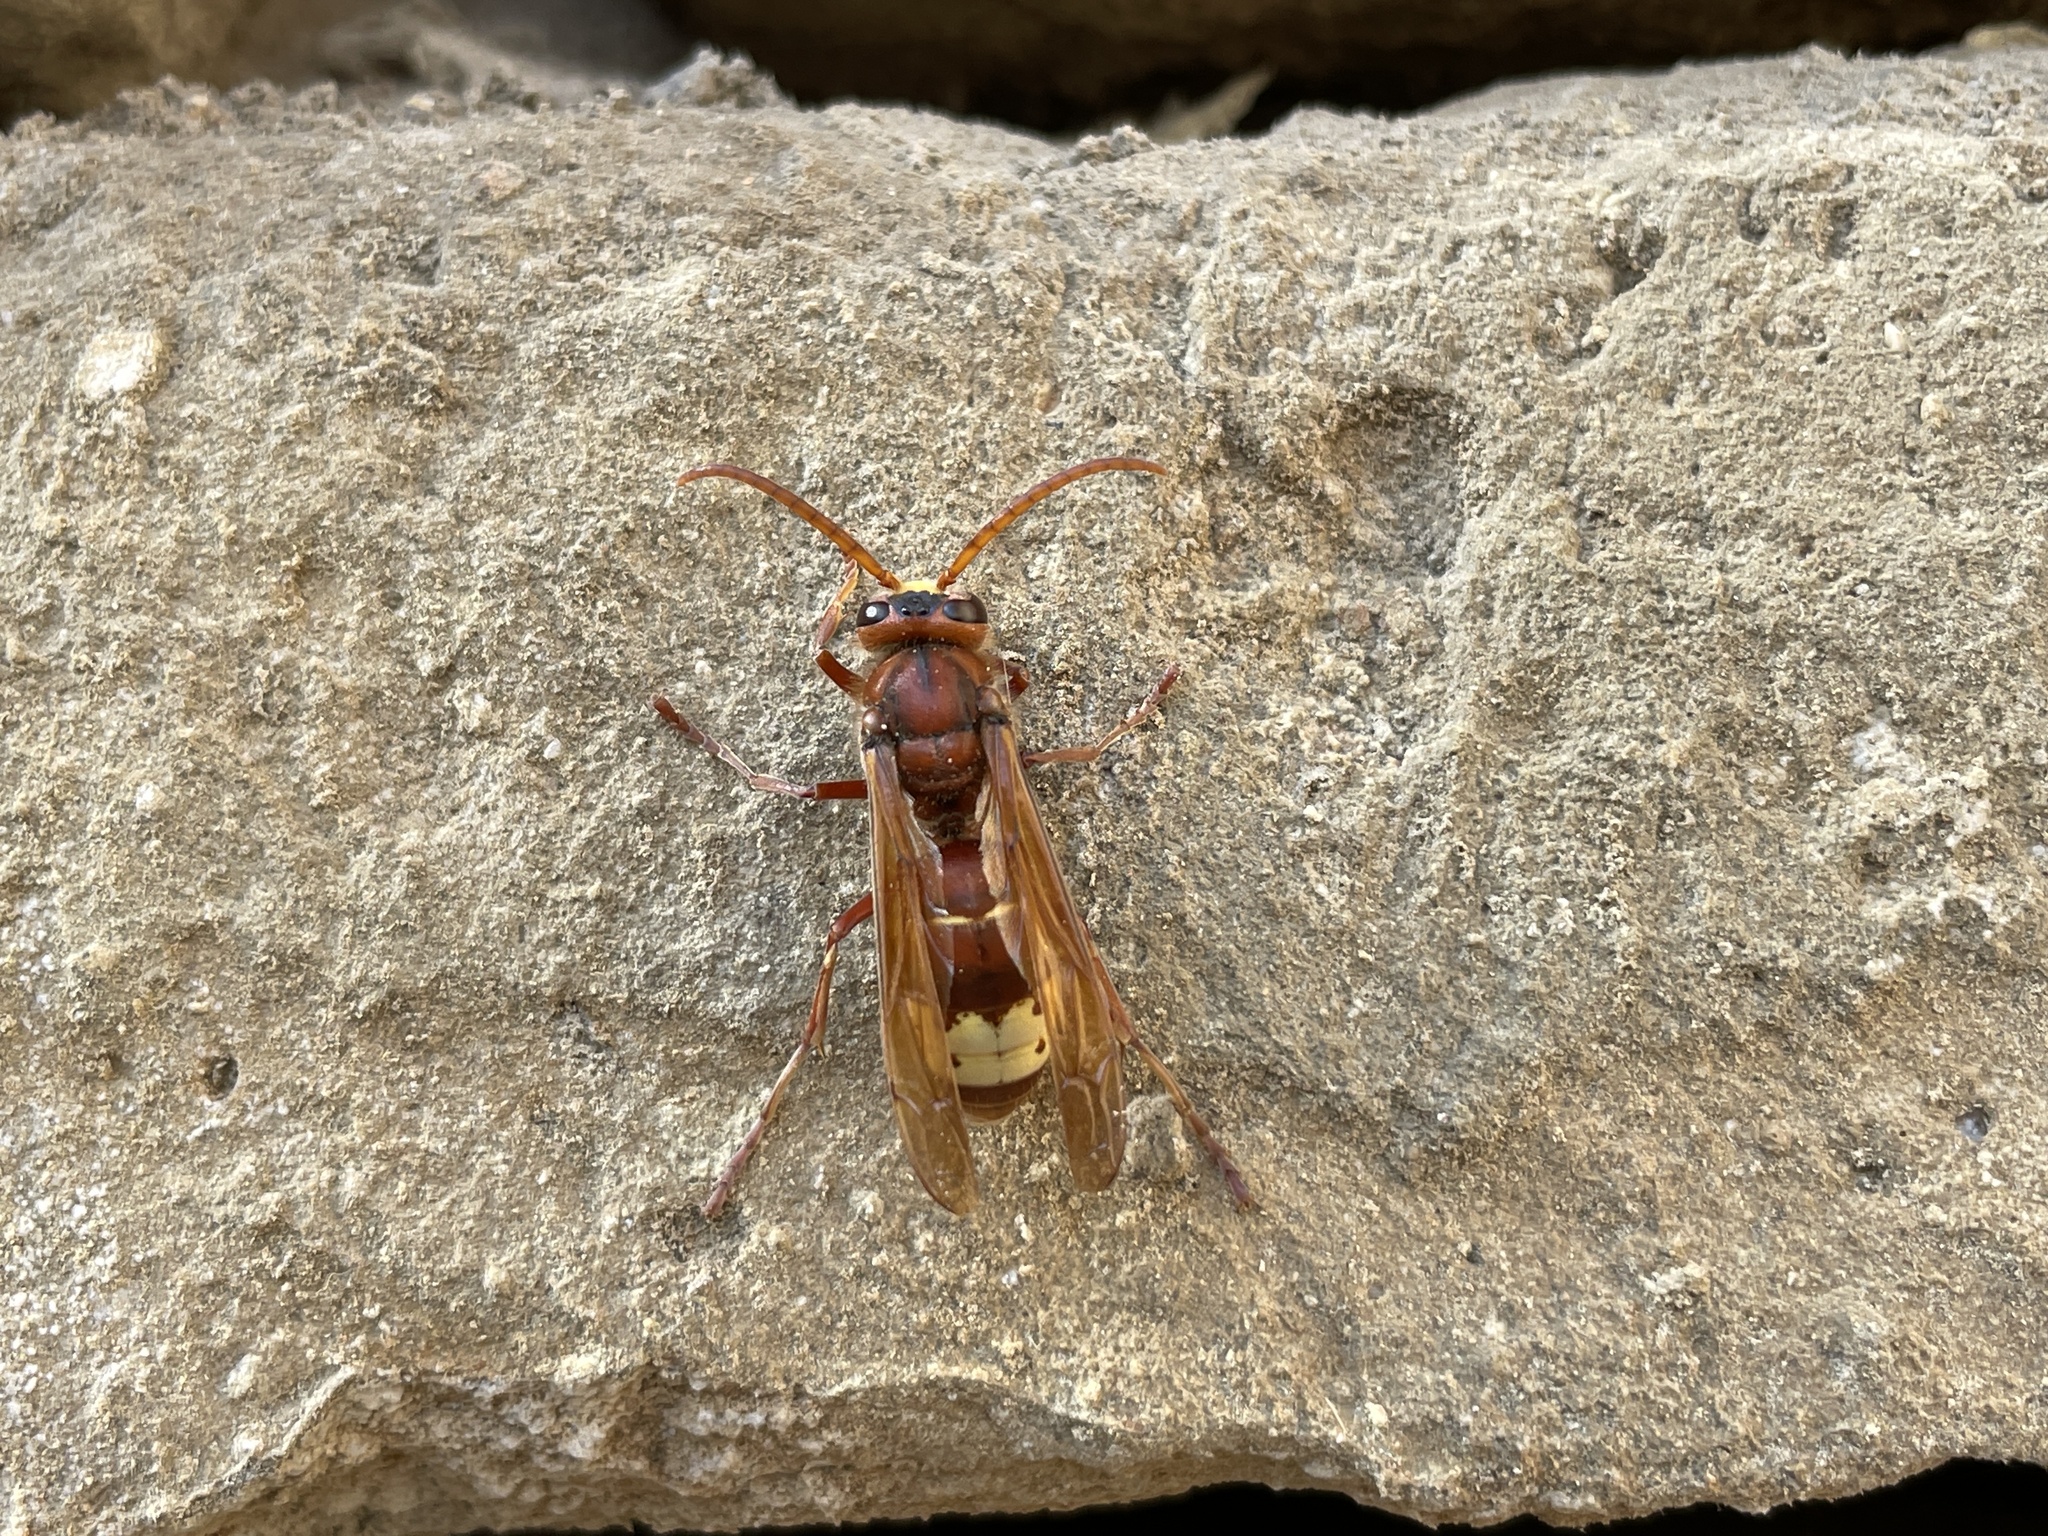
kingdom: Animalia
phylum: Arthropoda
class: Insecta
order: Hymenoptera
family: Vespidae
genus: Vespa
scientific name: Vespa orientalis
